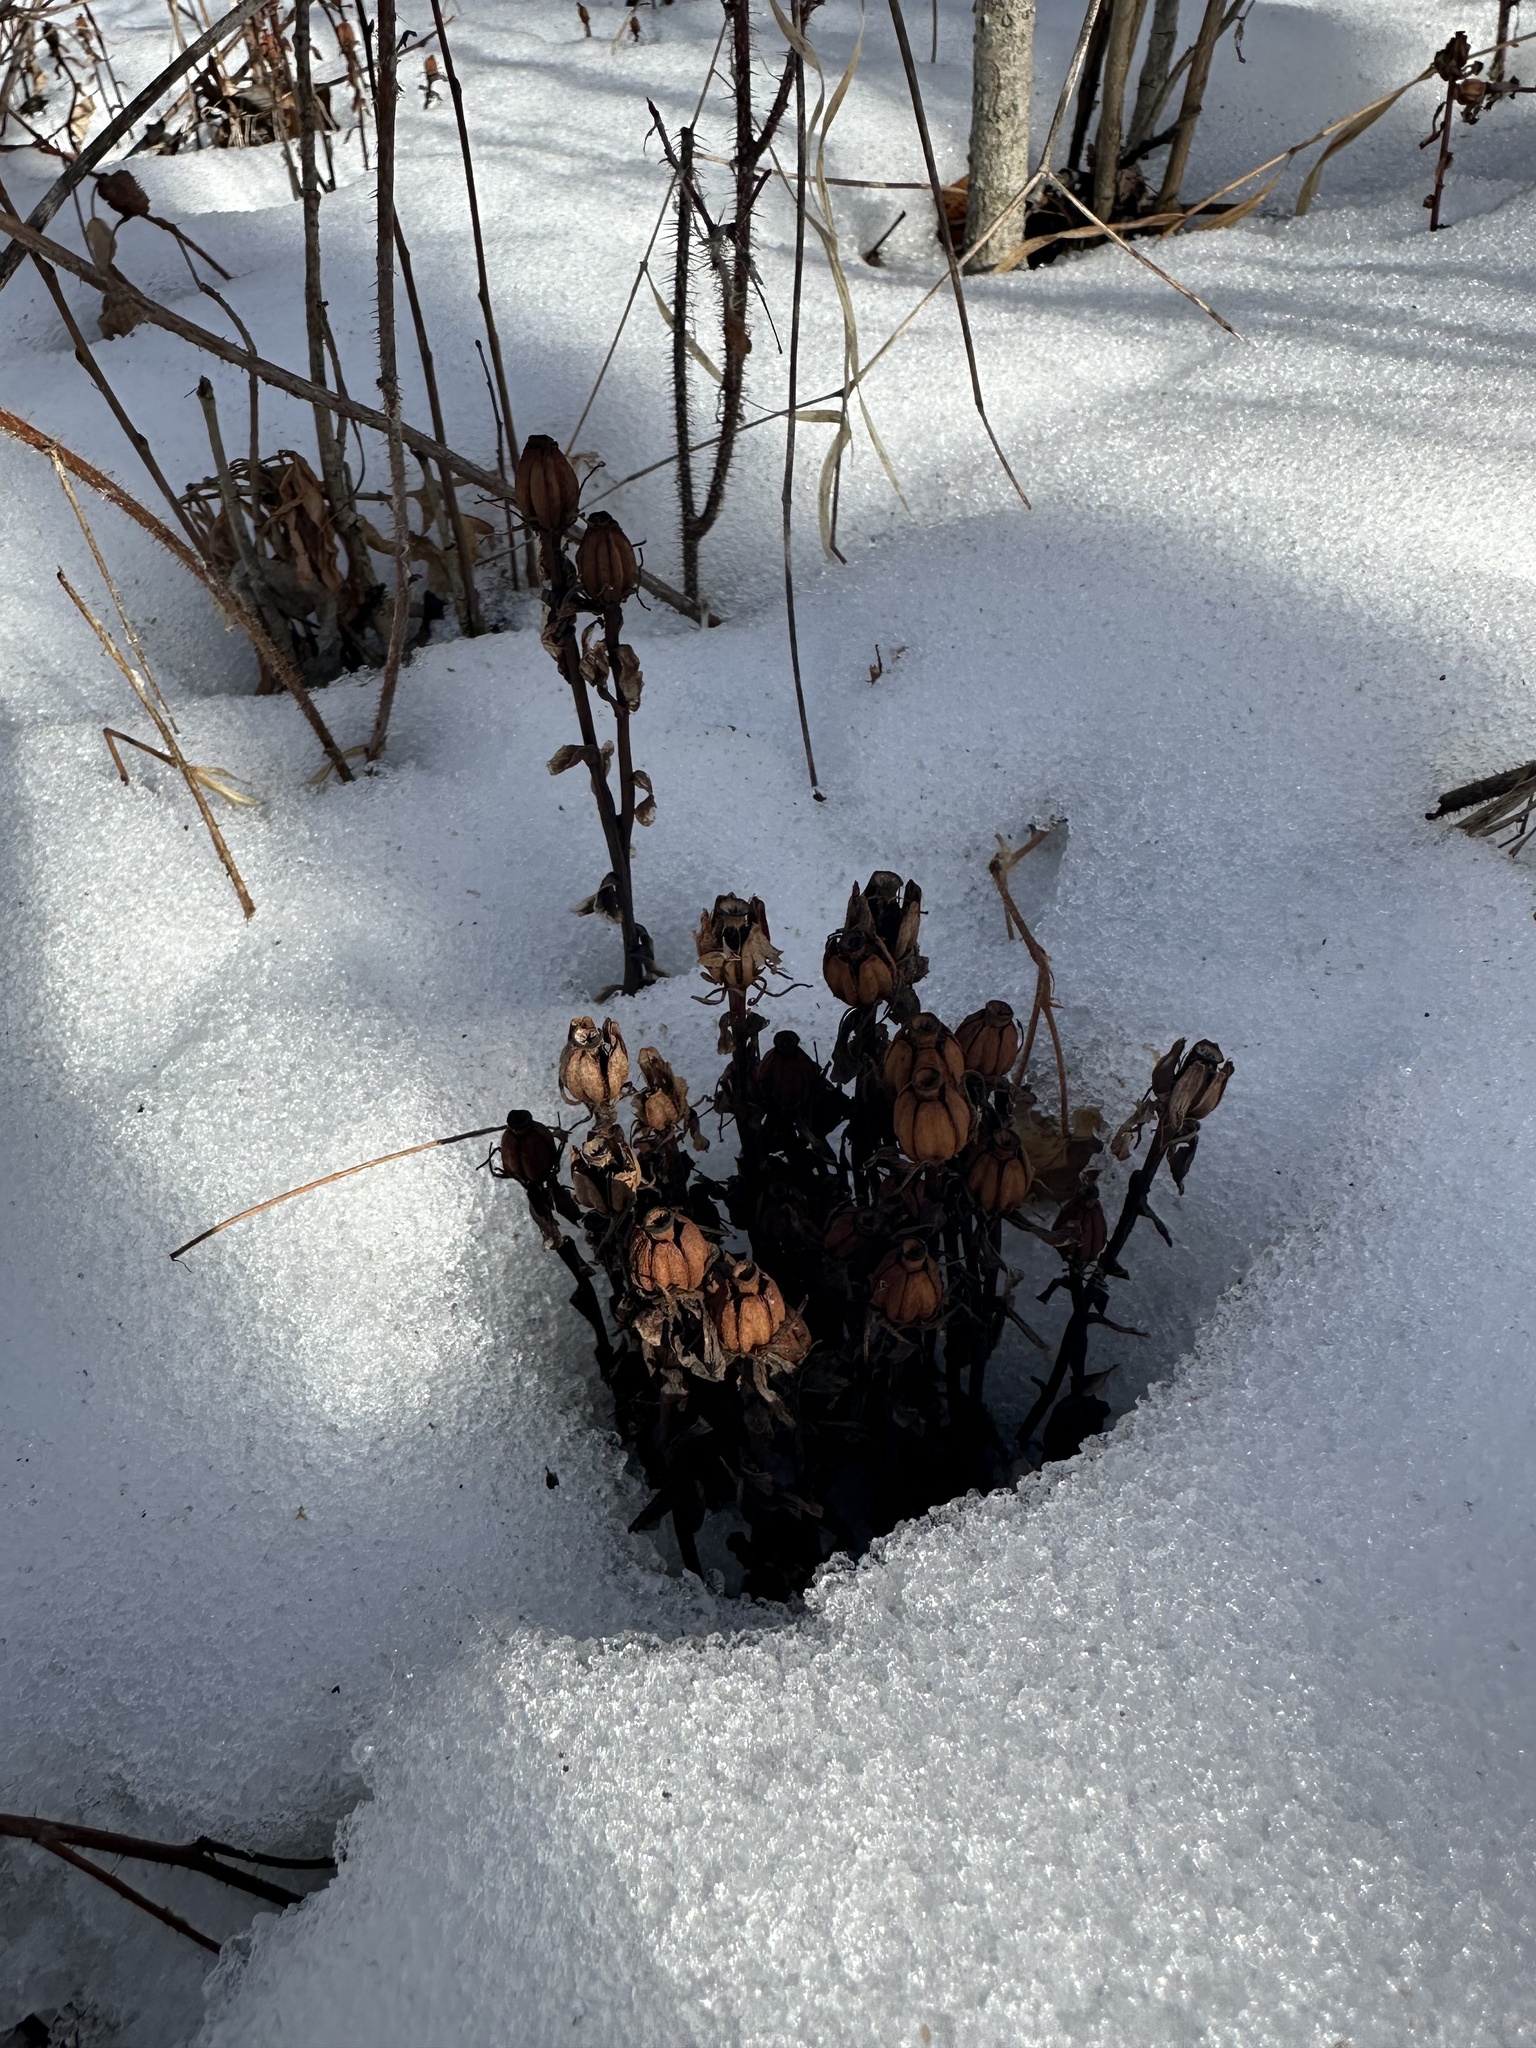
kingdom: Plantae
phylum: Tracheophyta
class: Magnoliopsida
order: Ericales
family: Ericaceae
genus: Monotropa
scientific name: Monotropa uniflora
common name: Convulsion root
